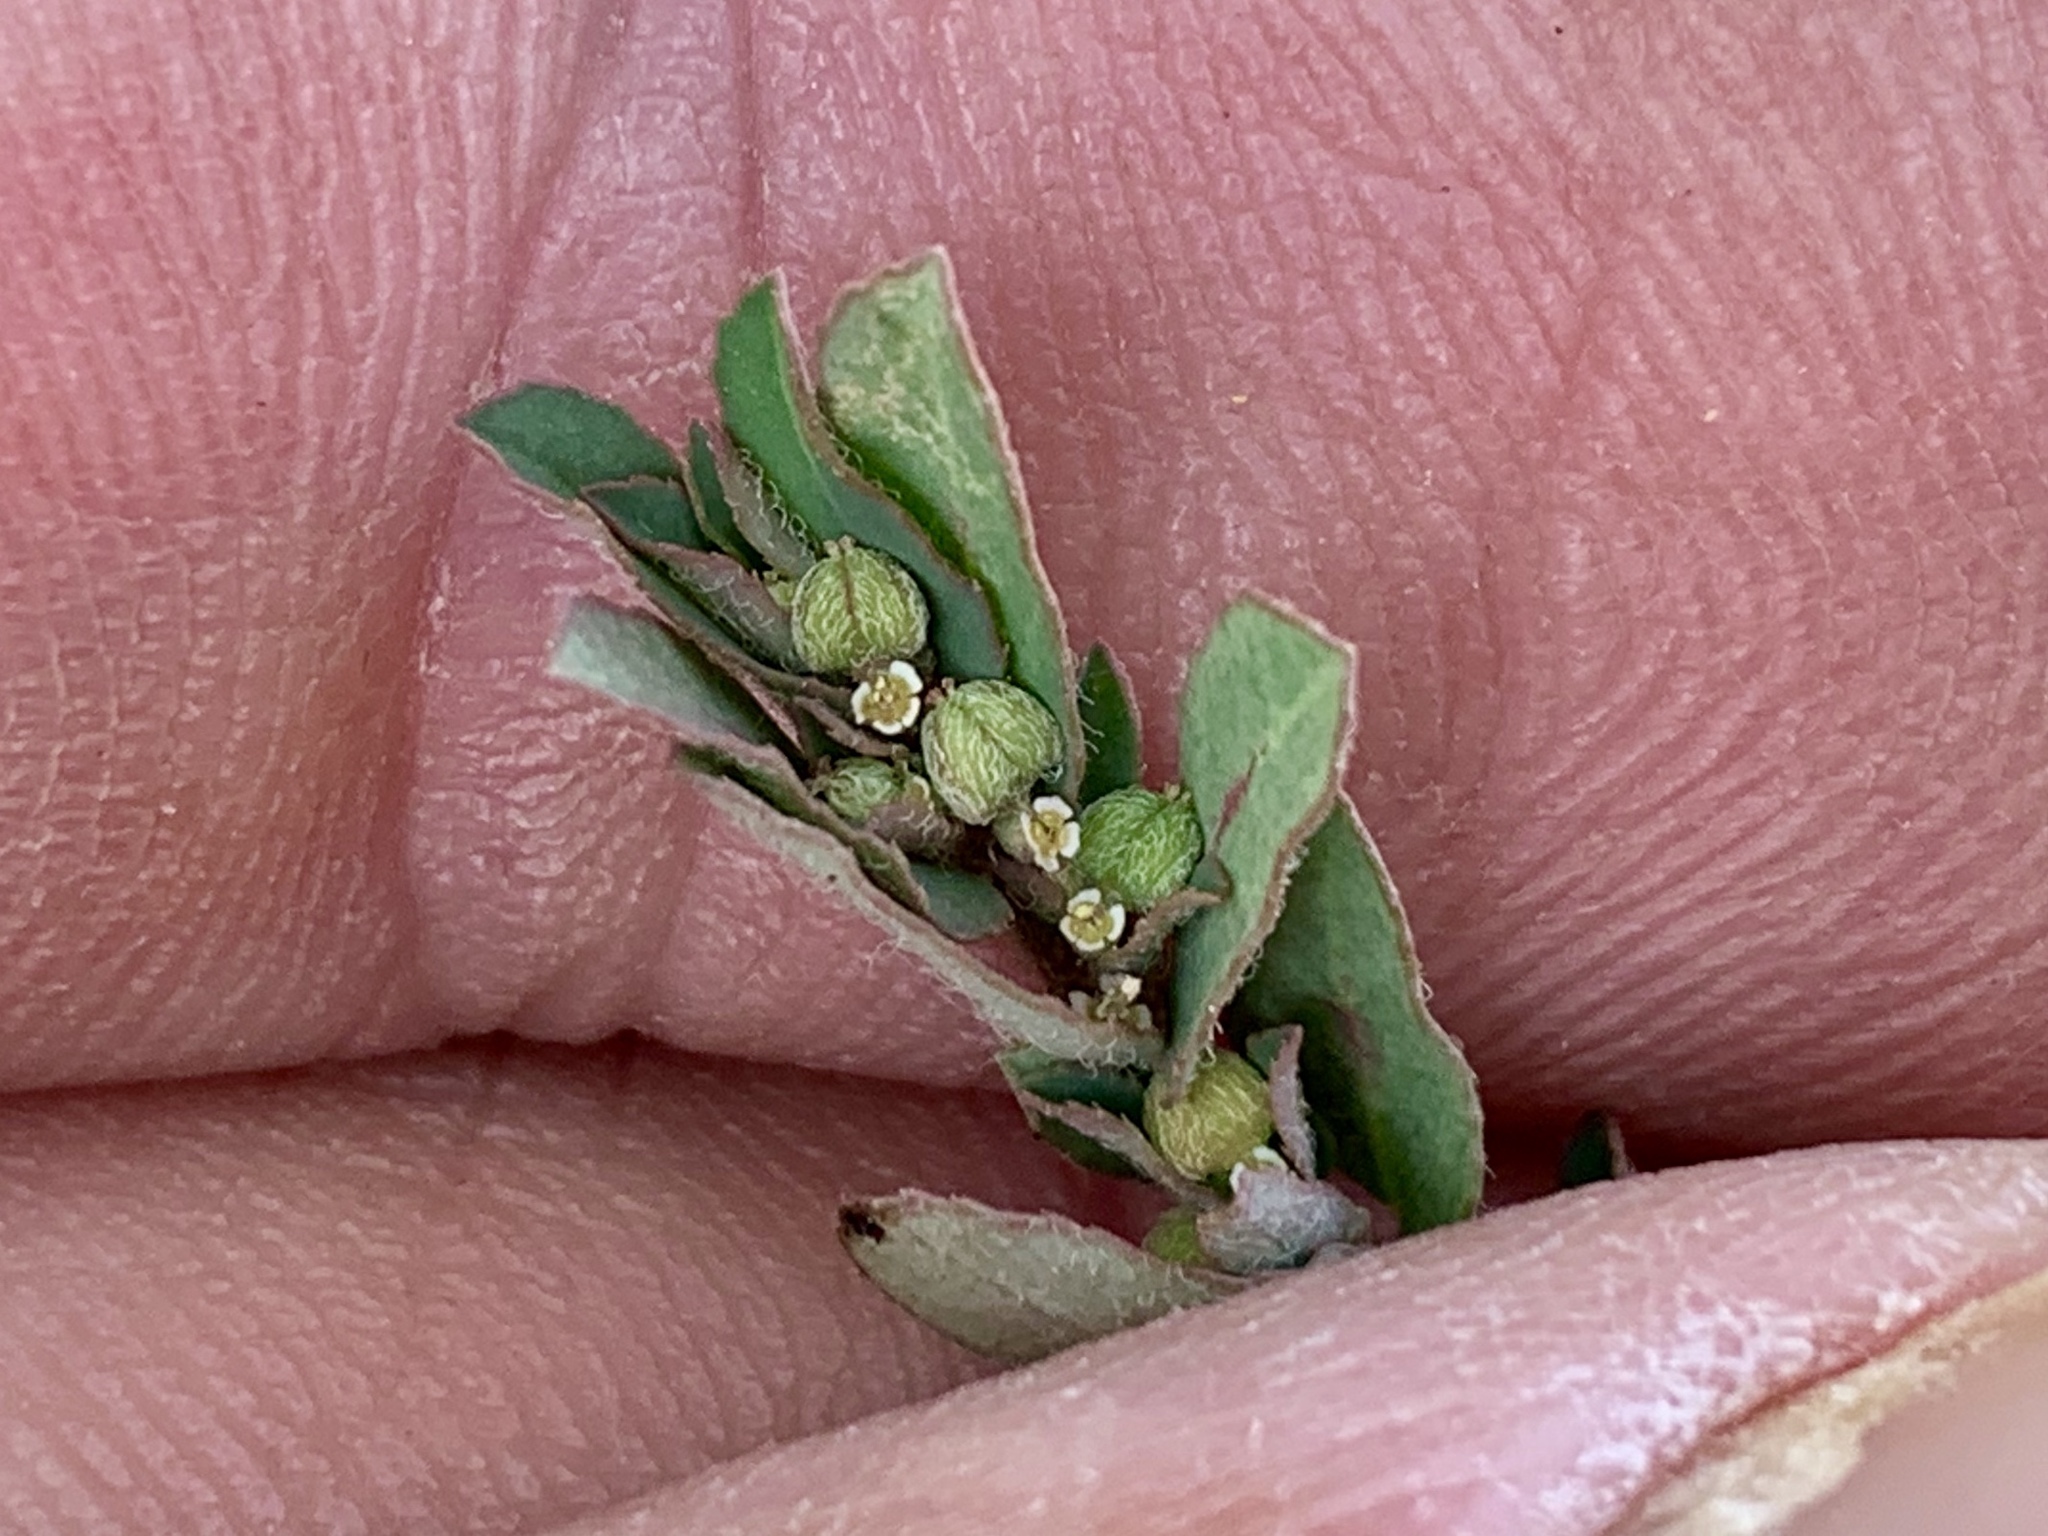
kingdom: Plantae
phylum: Tracheophyta
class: Magnoliopsida
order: Malpighiales
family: Euphorbiaceae
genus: Euphorbia
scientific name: Euphorbia maculata
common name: Spotted spurge
